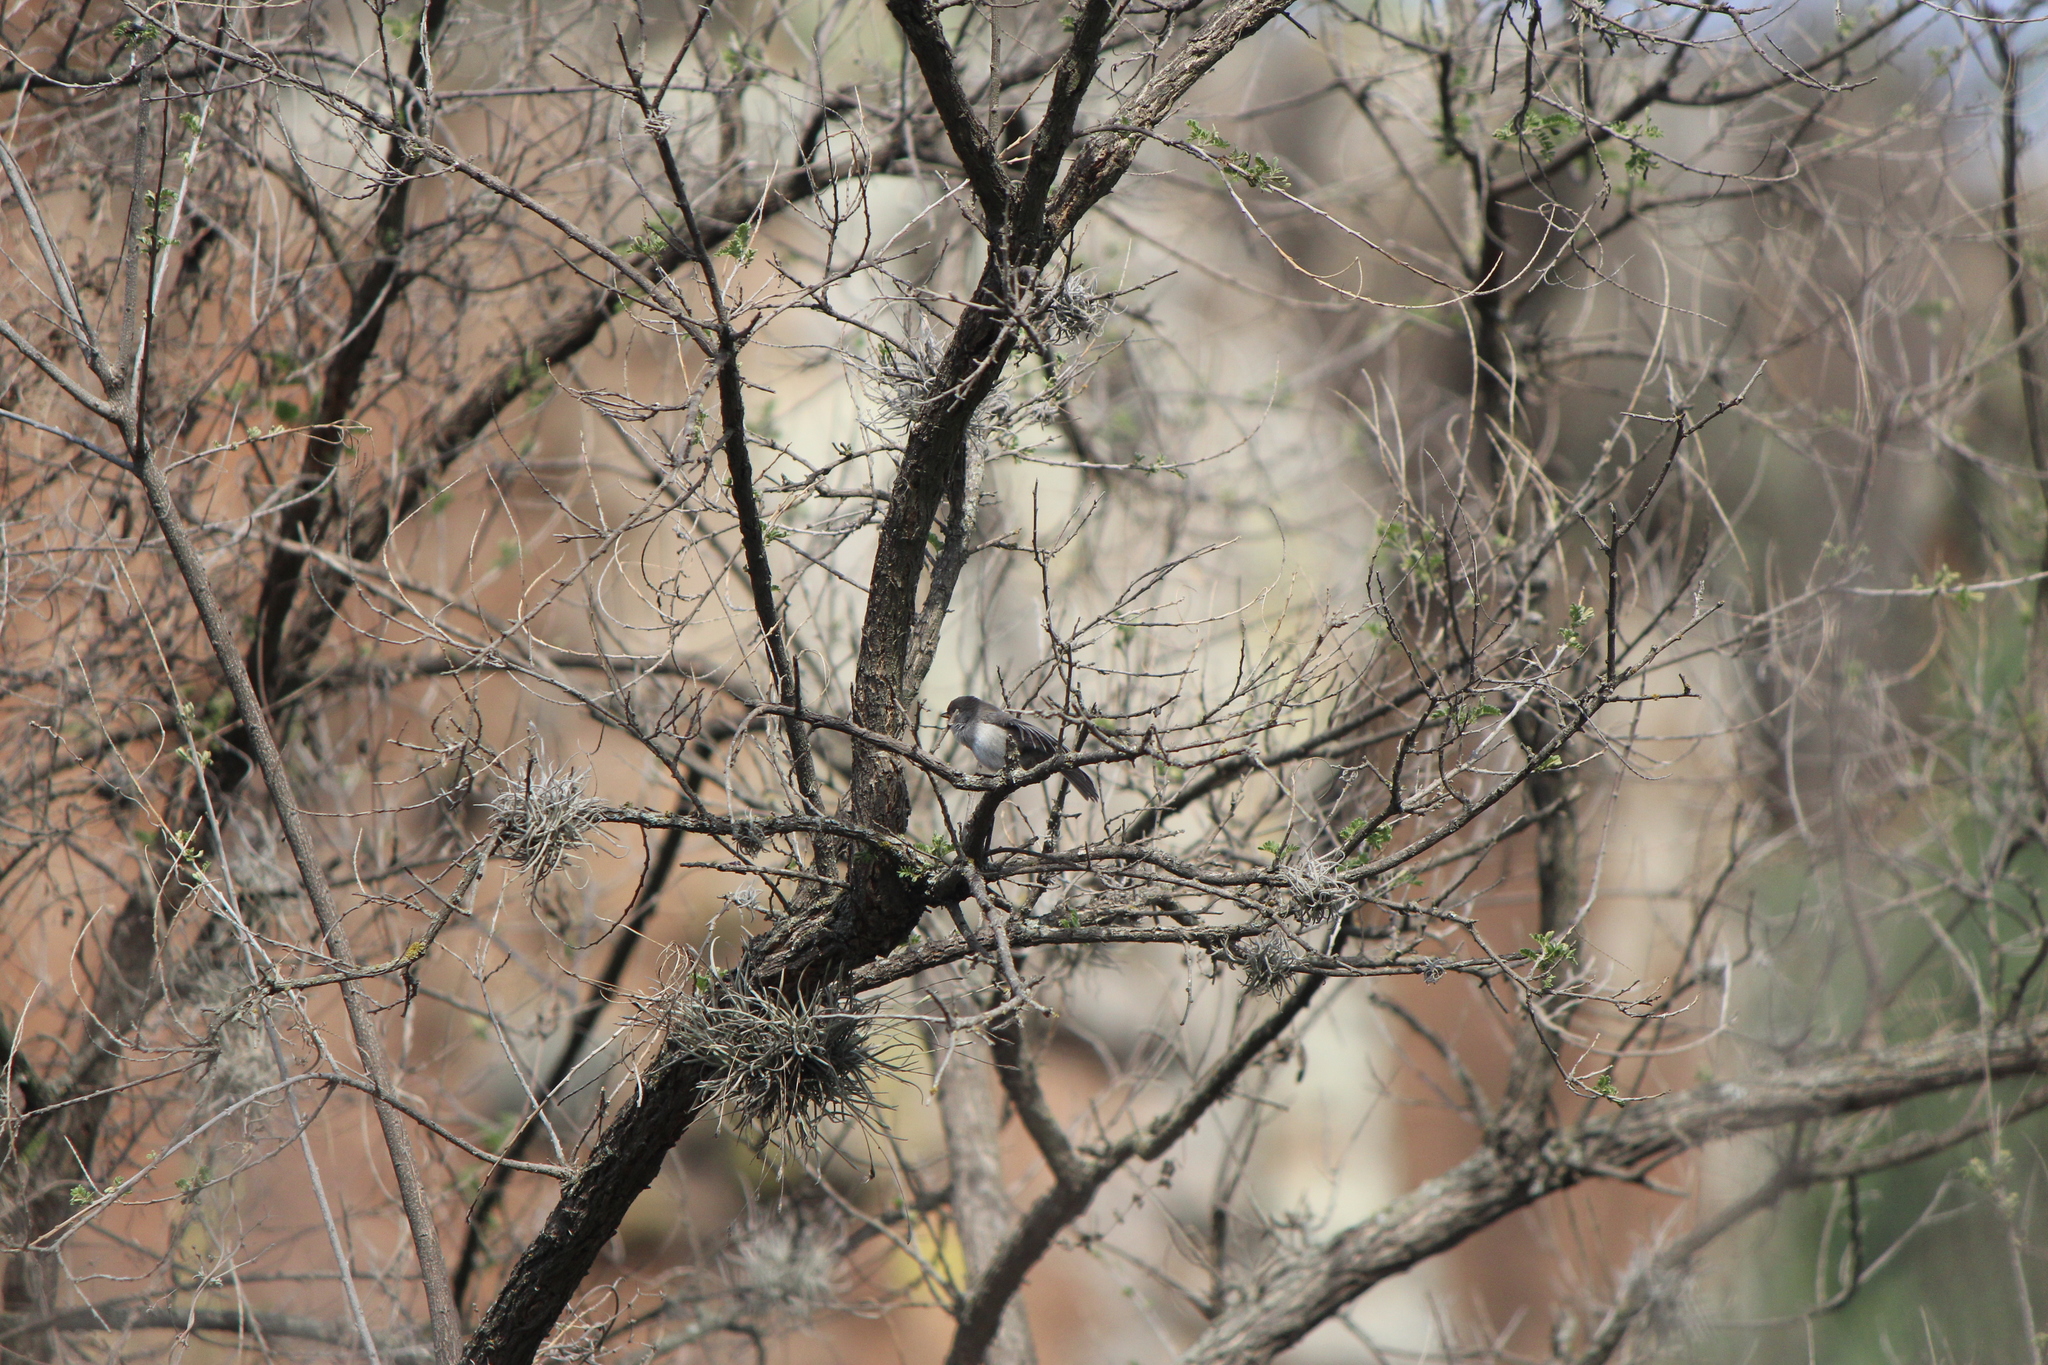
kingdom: Animalia
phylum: Chordata
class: Aves
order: Passeriformes
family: Remizidae
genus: Auriparus
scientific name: Auriparus flaviceps
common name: Verdin
